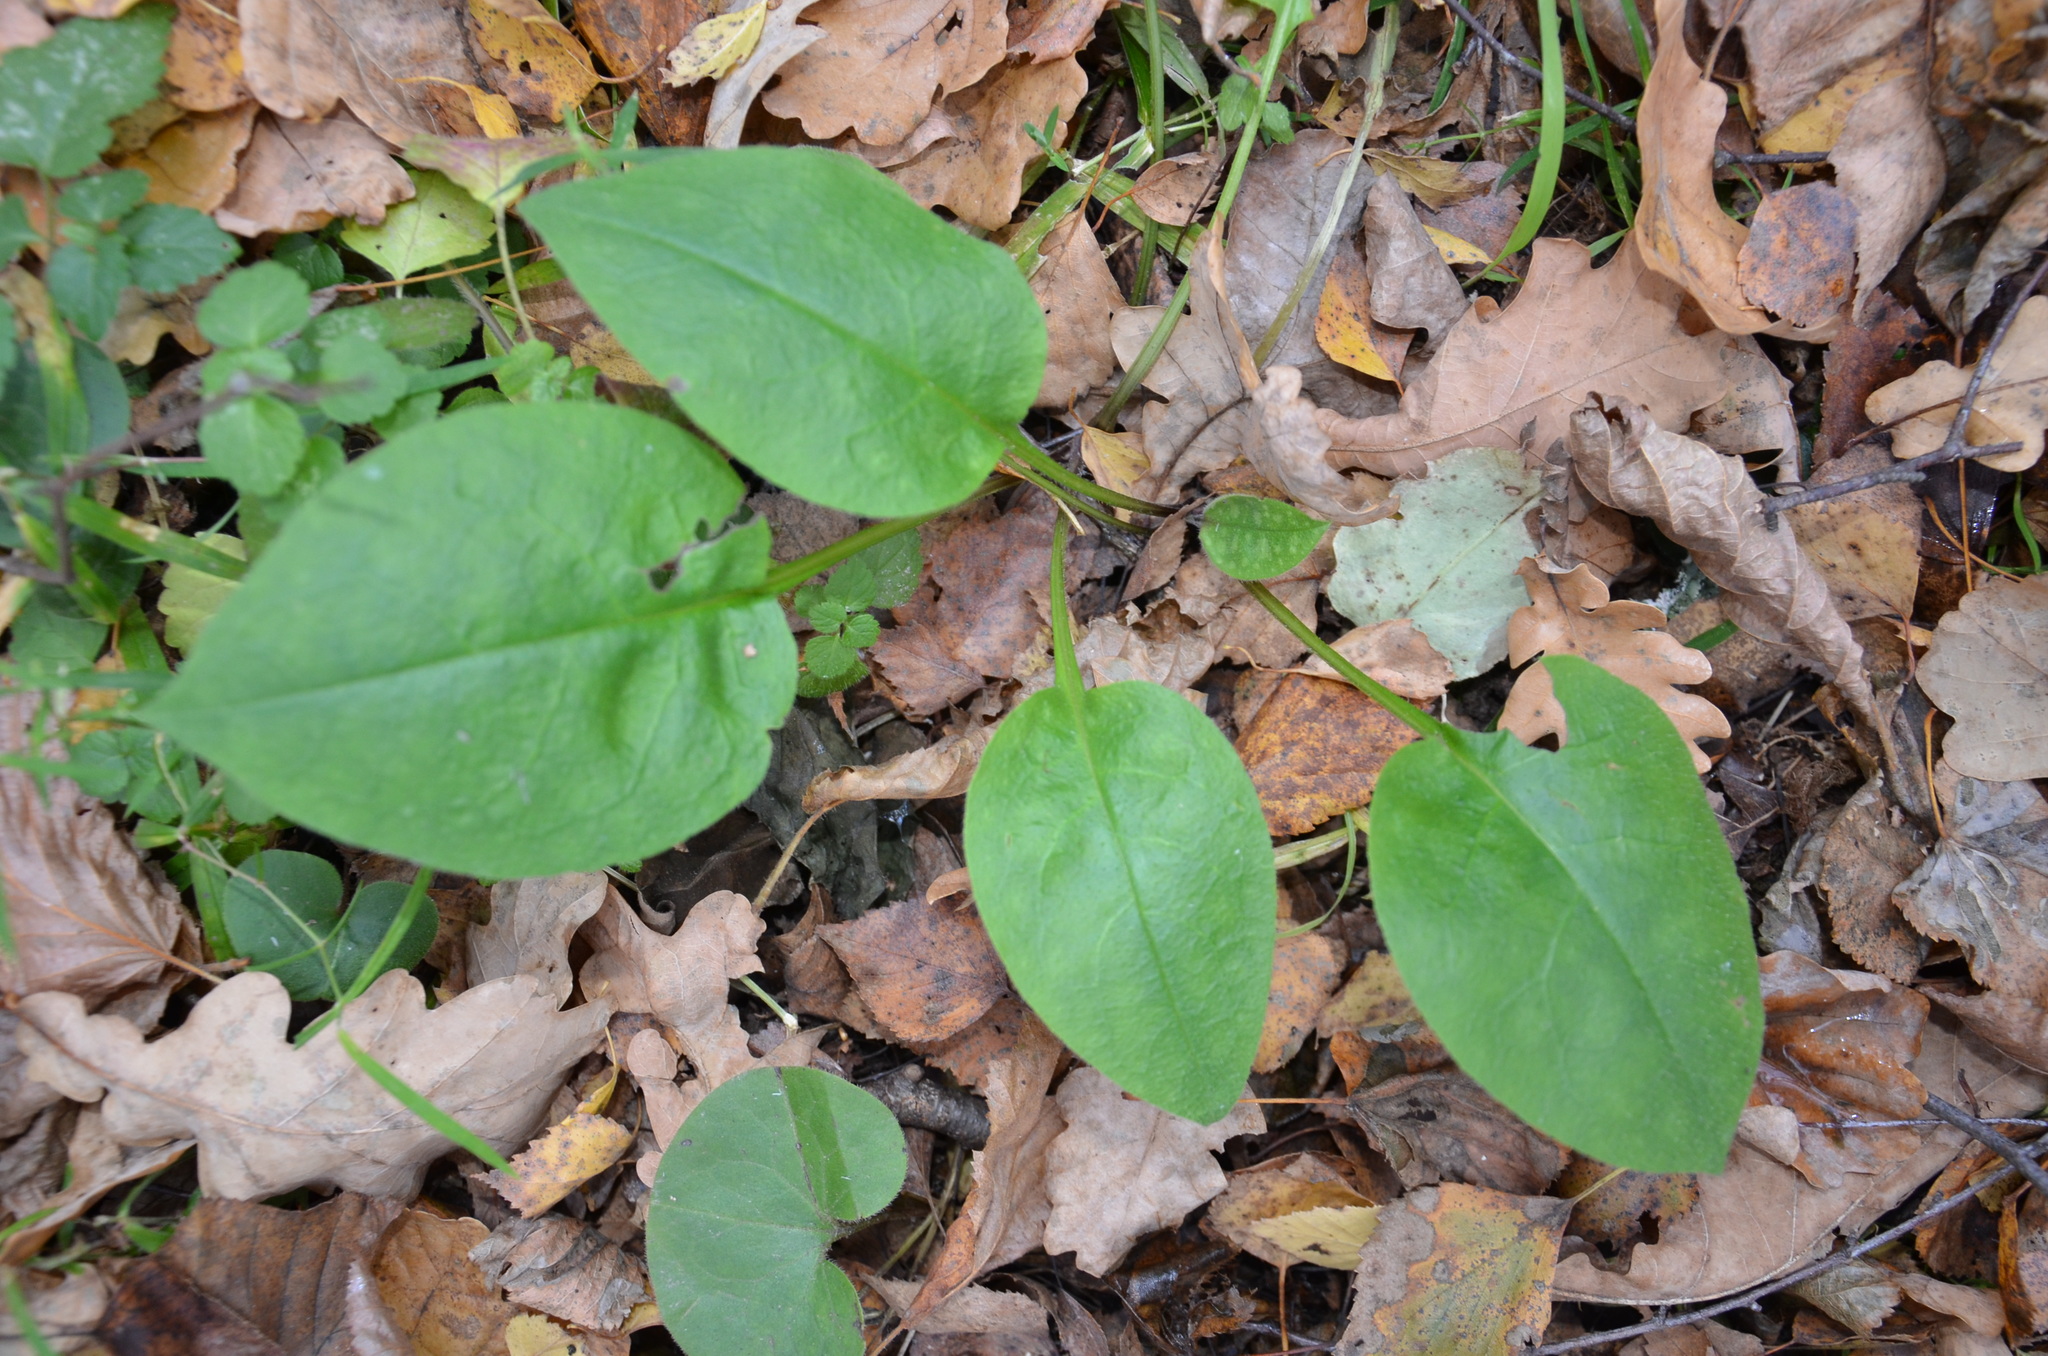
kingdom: Plantae
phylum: Tracheophyta
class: Magnoliopsida
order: Boraginales
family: Boraginaceae
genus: Pulmonaria
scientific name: Pulmonaria obscura
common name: Suffolk lungwort
